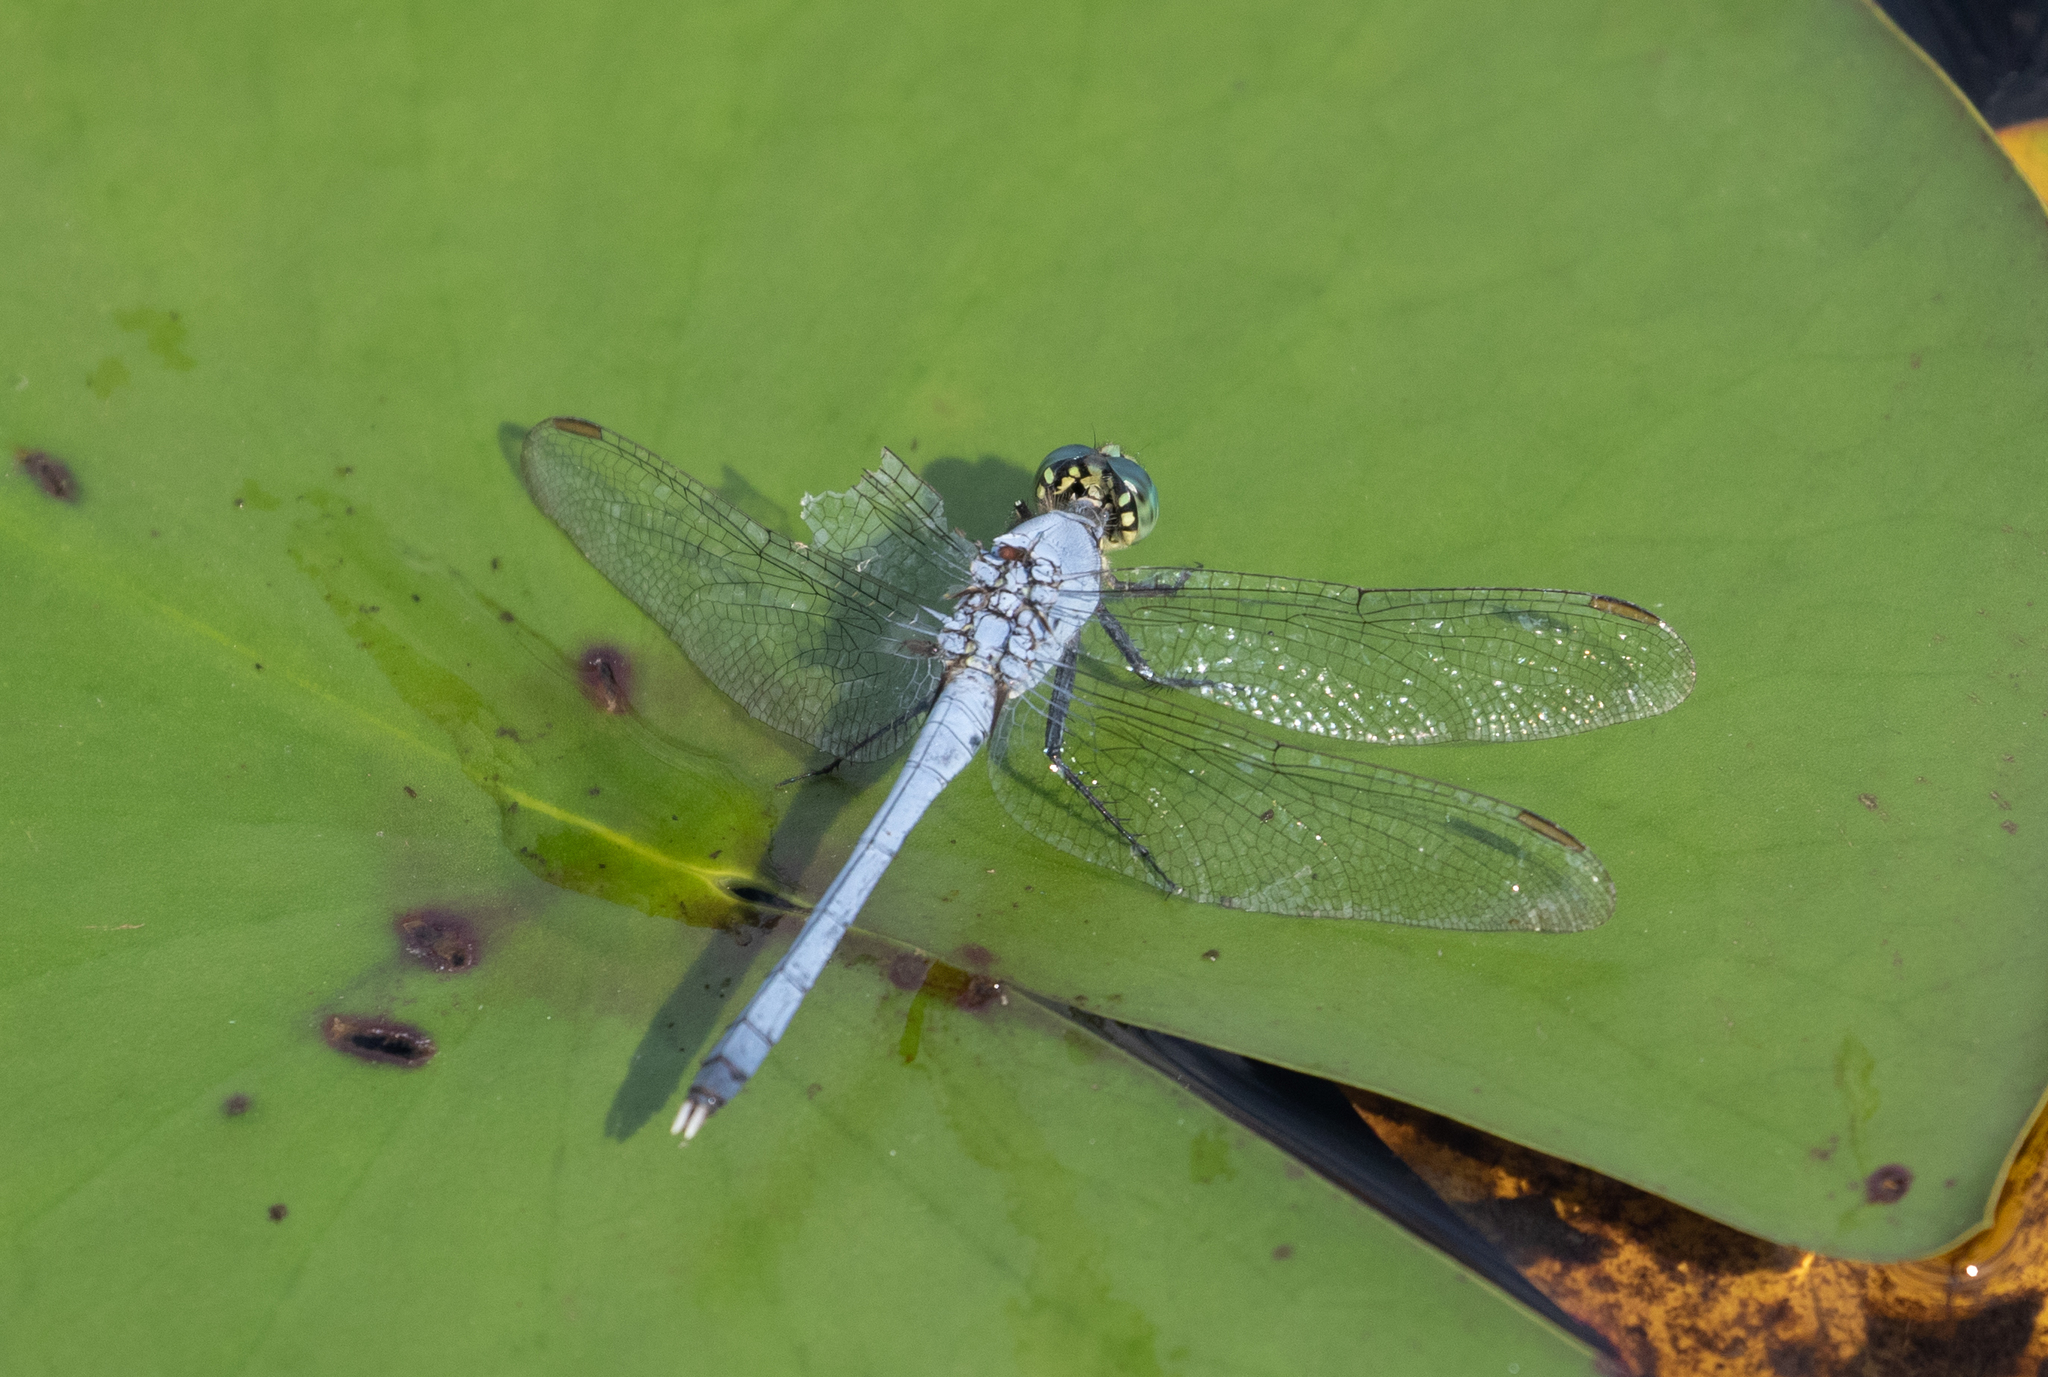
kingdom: Animalia
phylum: Arthropoda
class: Insecta
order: Odonata
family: Libellulidae
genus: Erythemis
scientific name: Erythemis simplicicollis
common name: Eastern pondhawk
